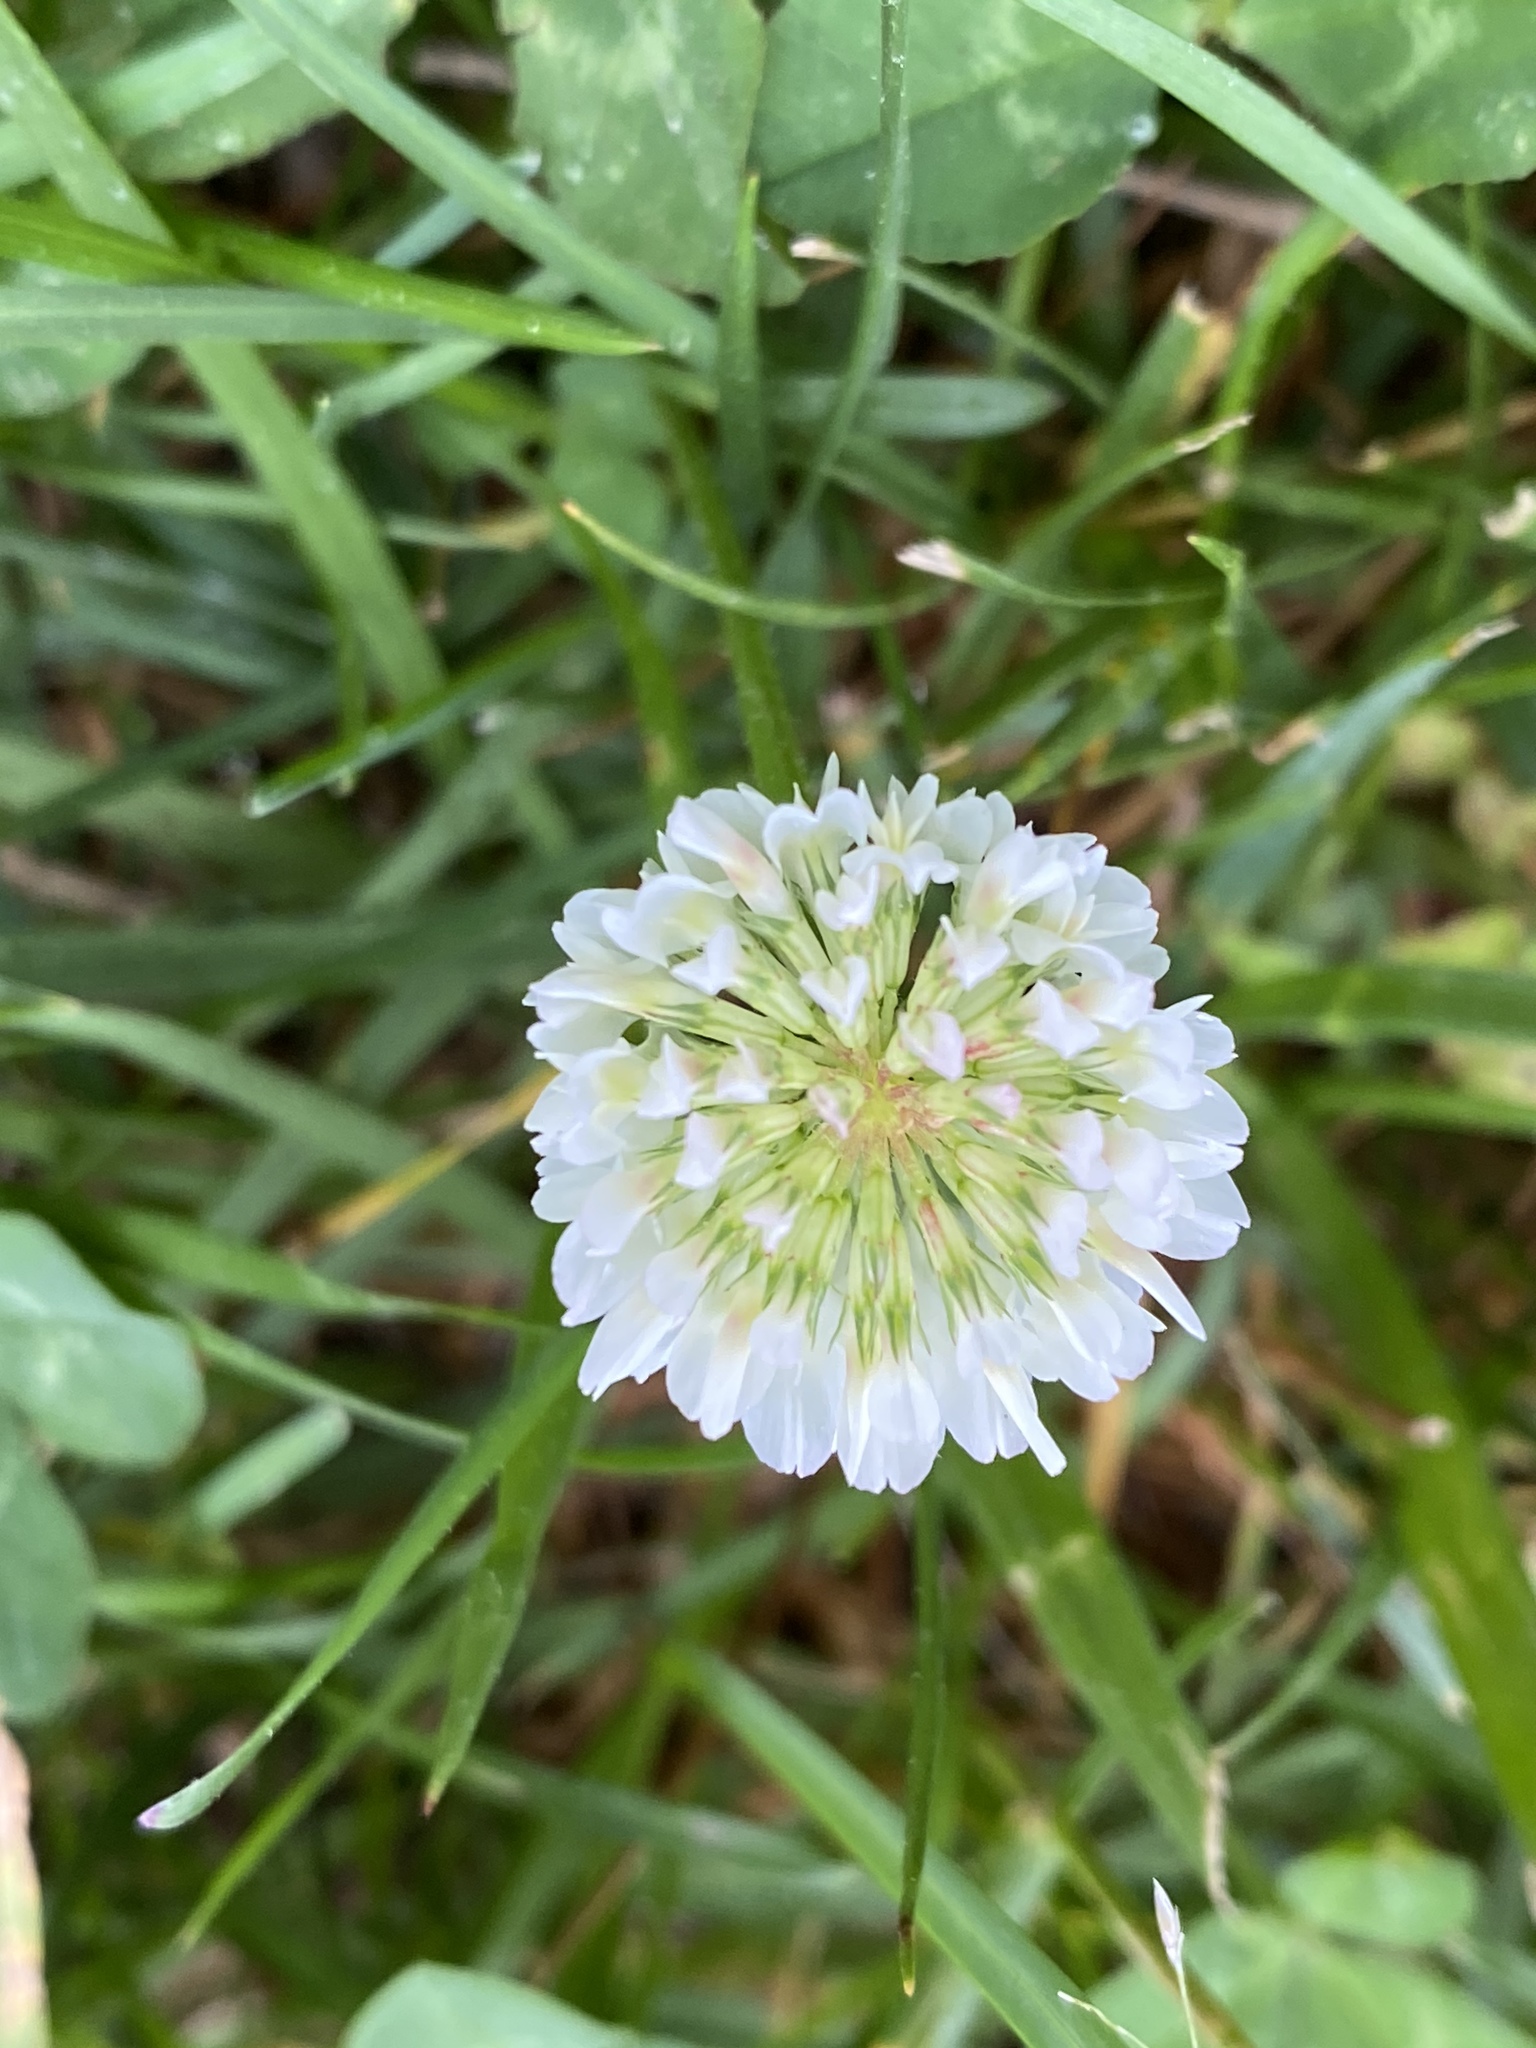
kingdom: Plantae
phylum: Tracheophyta
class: Magnoliopsida
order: Fabales
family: Fabaceae
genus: Trifolium
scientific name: Trifolium repens
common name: White clover
